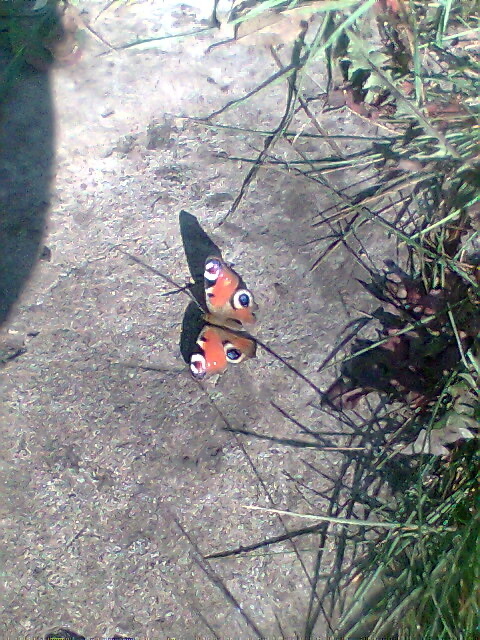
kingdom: Animalia
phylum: Arthropoda
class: Insecta
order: Lepidoptera
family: Nymphalidae
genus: Aglais
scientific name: Aglais io
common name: Peacock
